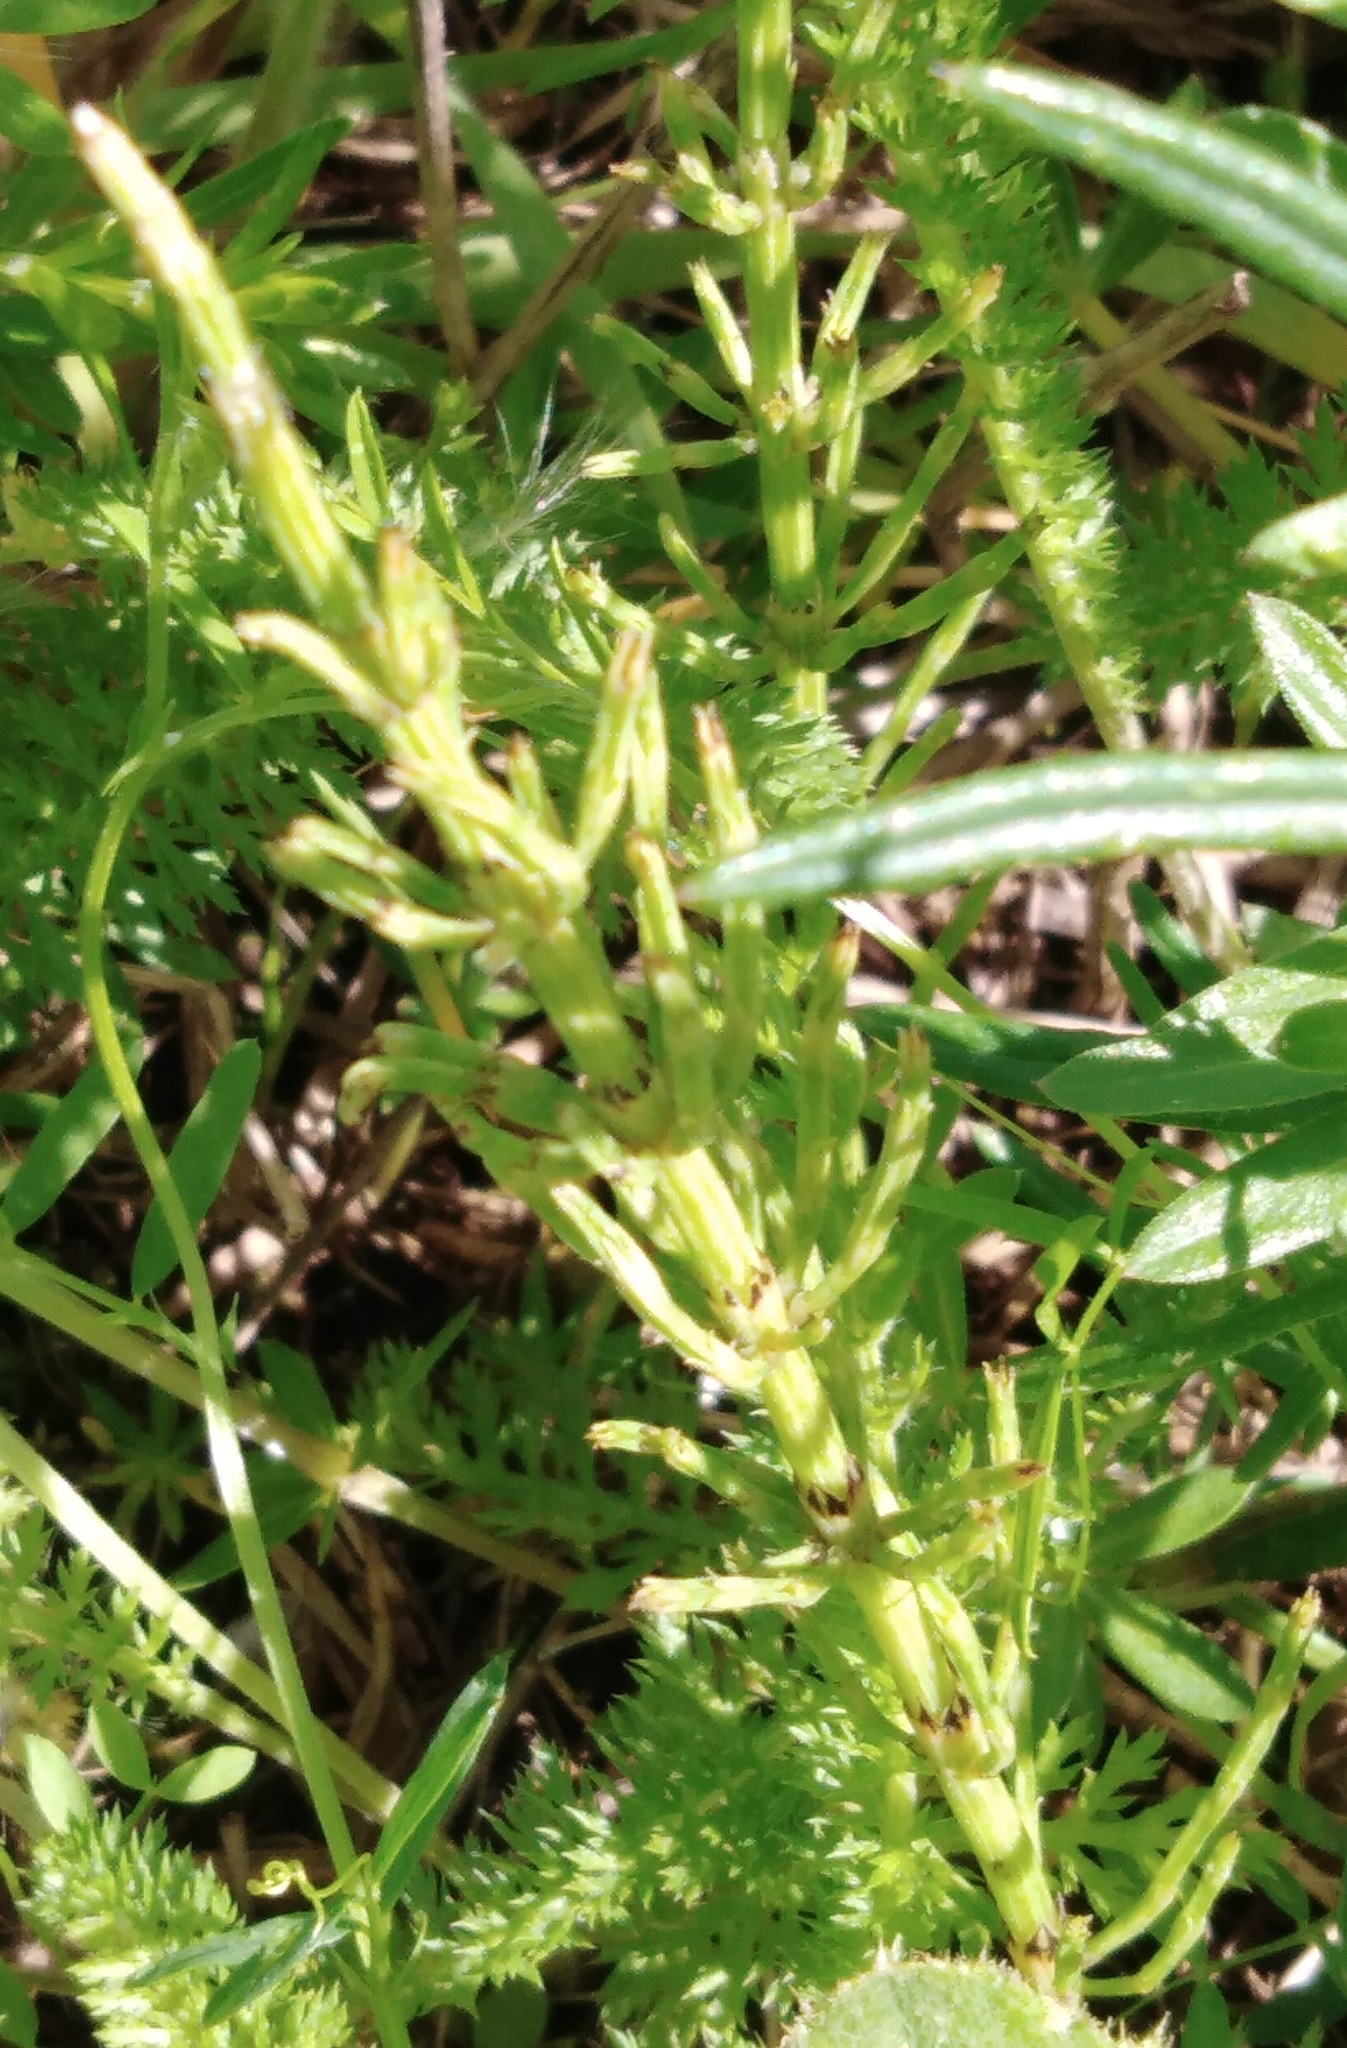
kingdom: Plantae
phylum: Tracheophyta
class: Polypodiopsida
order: Equisetales
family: Equisetaceae
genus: Equisetum
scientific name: Equisetum arvense
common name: Field horsetail
